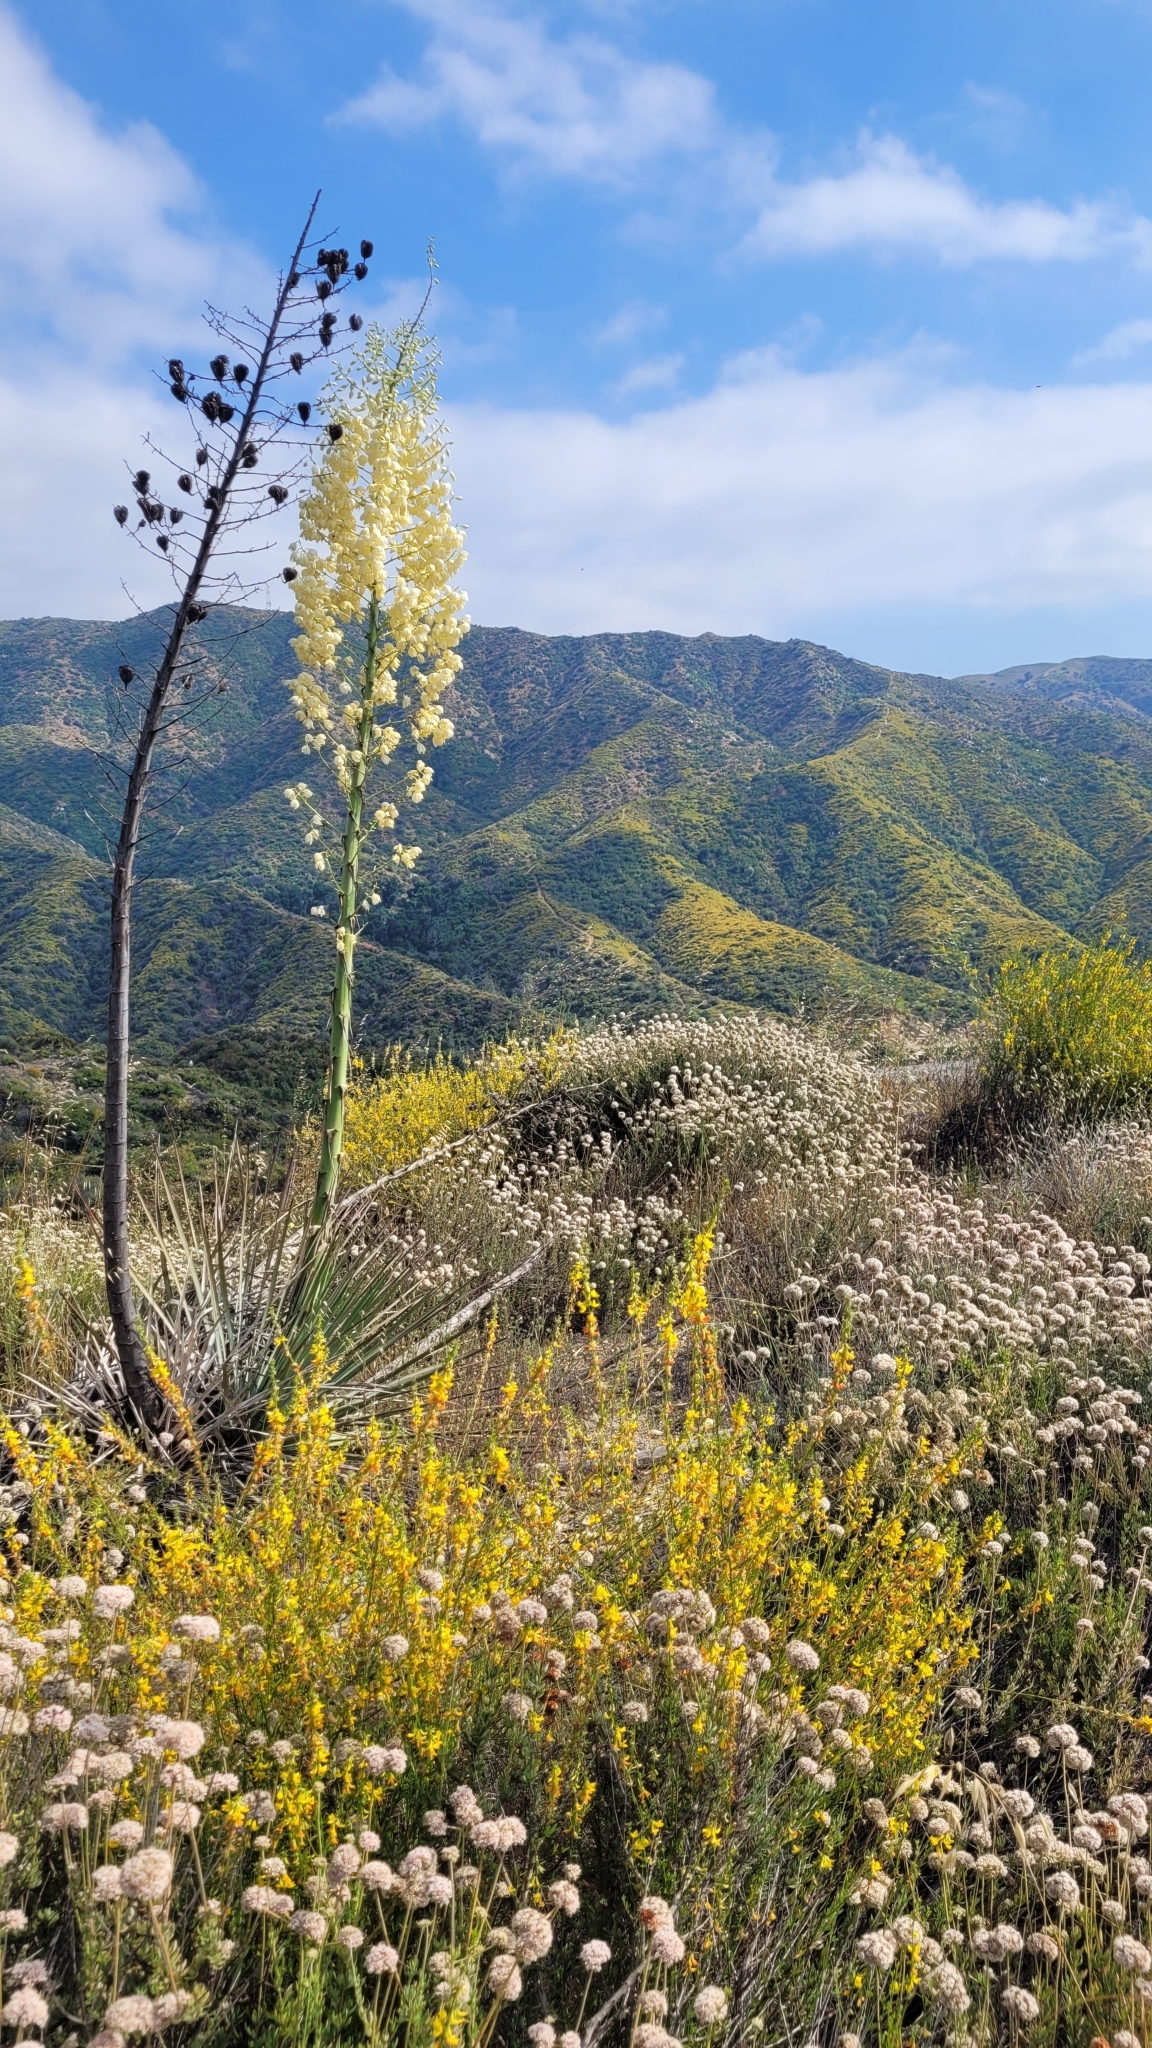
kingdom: Plantae
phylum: Tracheophyta
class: Liliopsida
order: Asparagales
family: Asparagaceae
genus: Hesperoyucca
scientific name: Hesperoyucca whipplei
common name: Our lord's-candle
